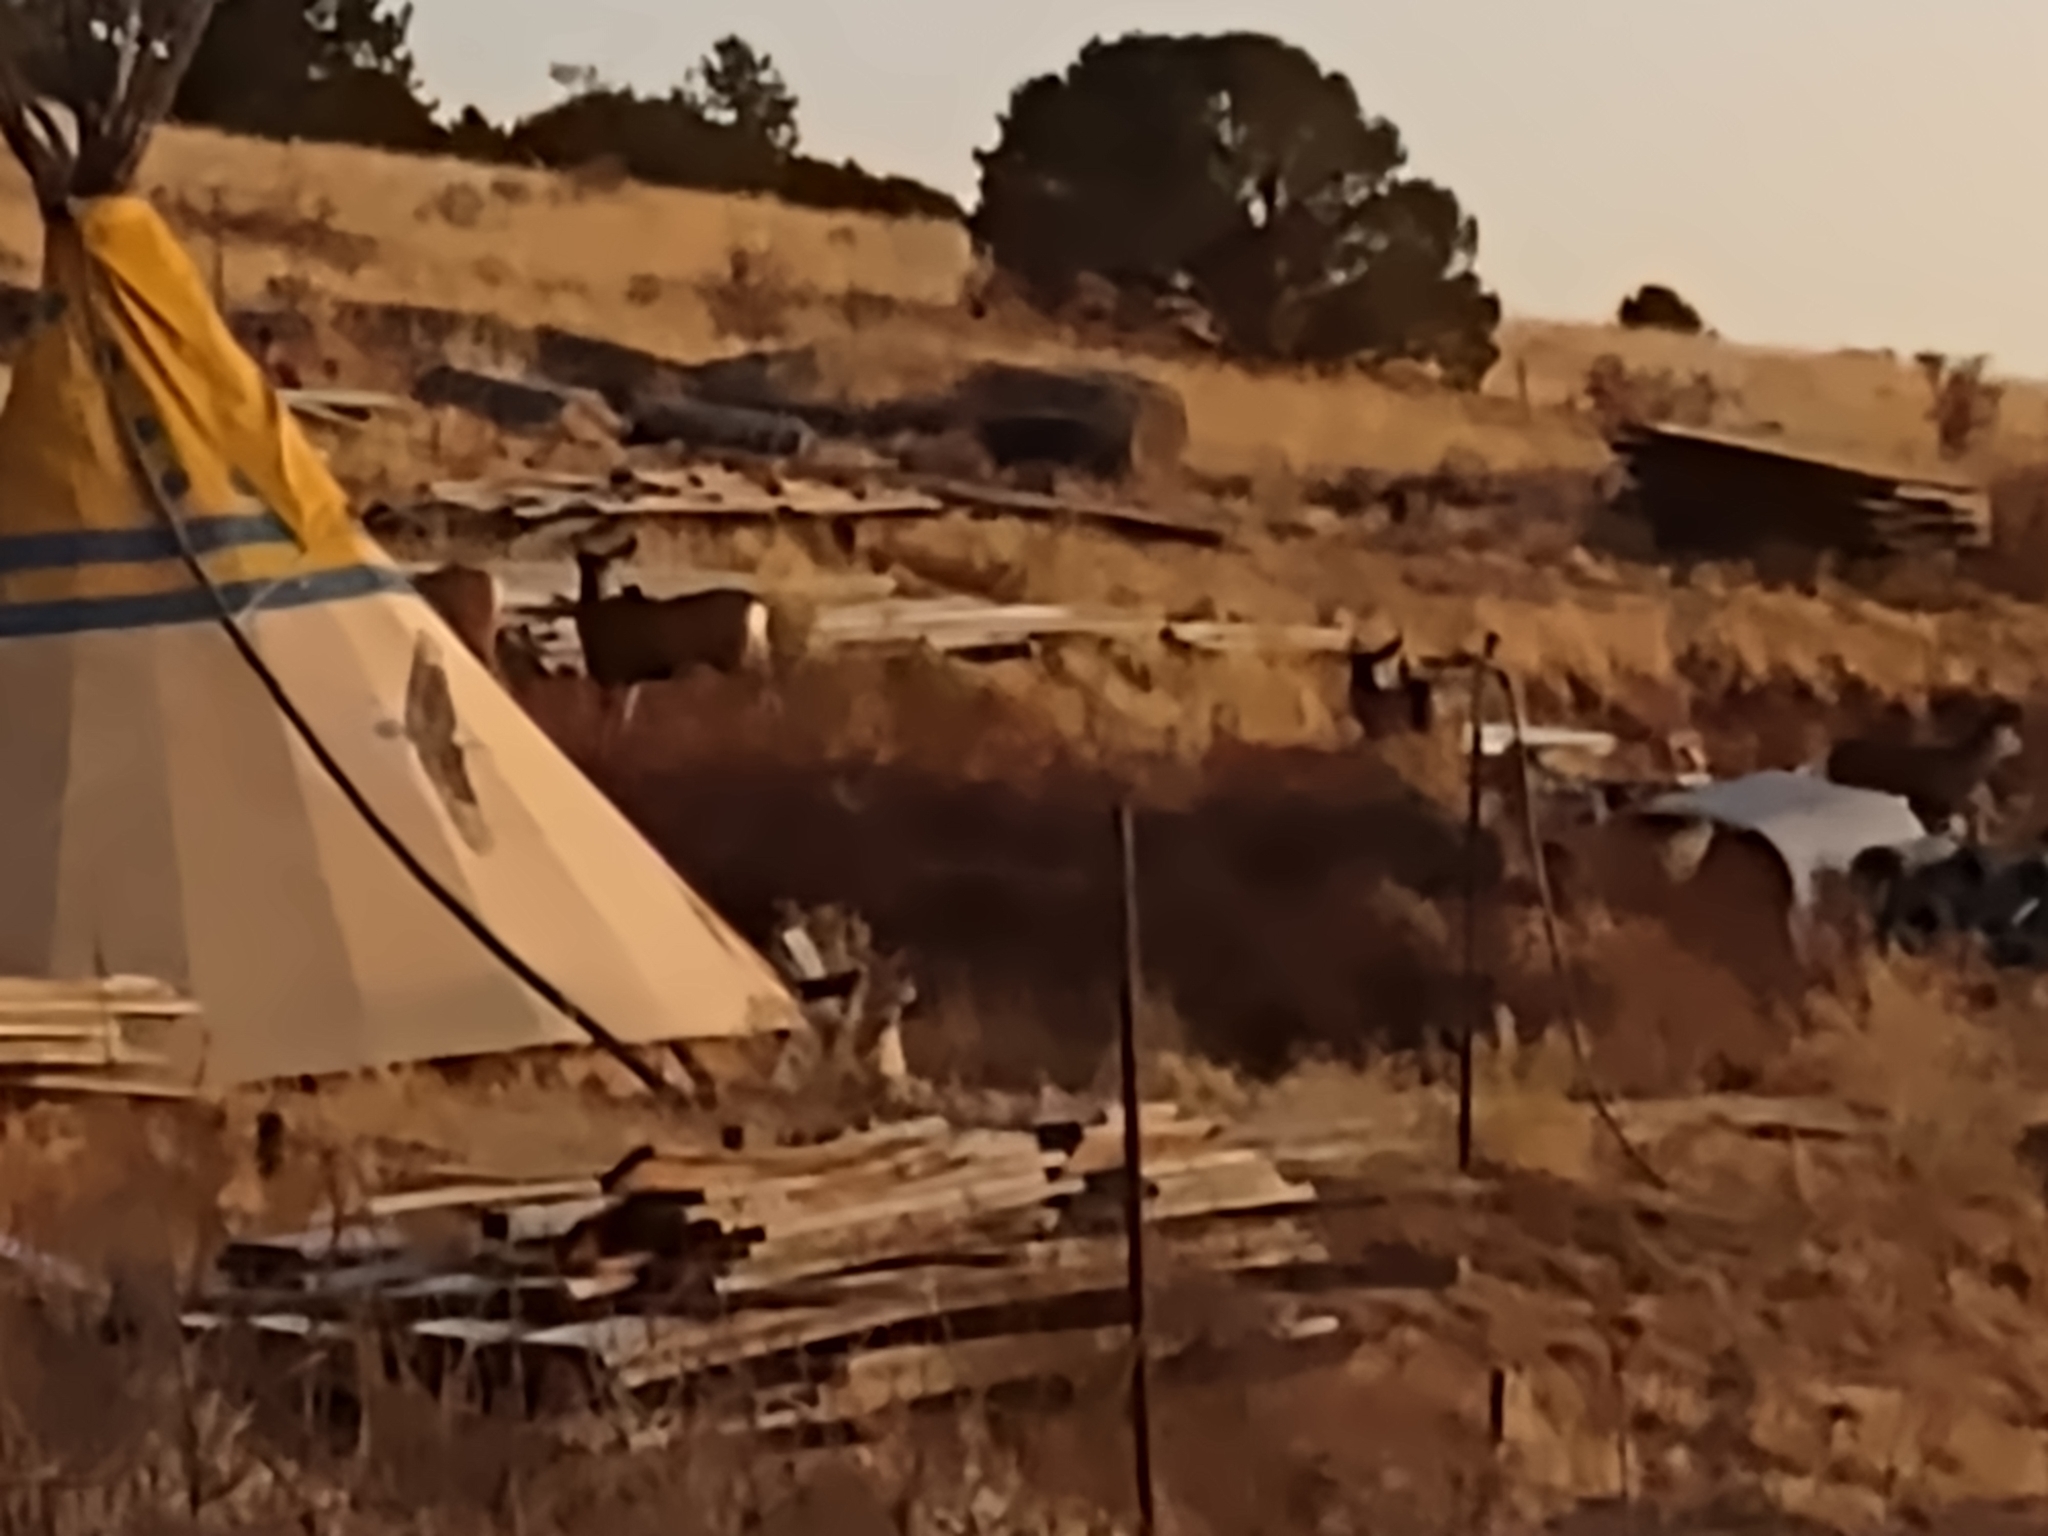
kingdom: Animalia
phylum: Chordata
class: Mammalia
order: Artiodactyla
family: Cervidae
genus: Odocoileus
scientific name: Odocoileus hemionus
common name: Mule deer
